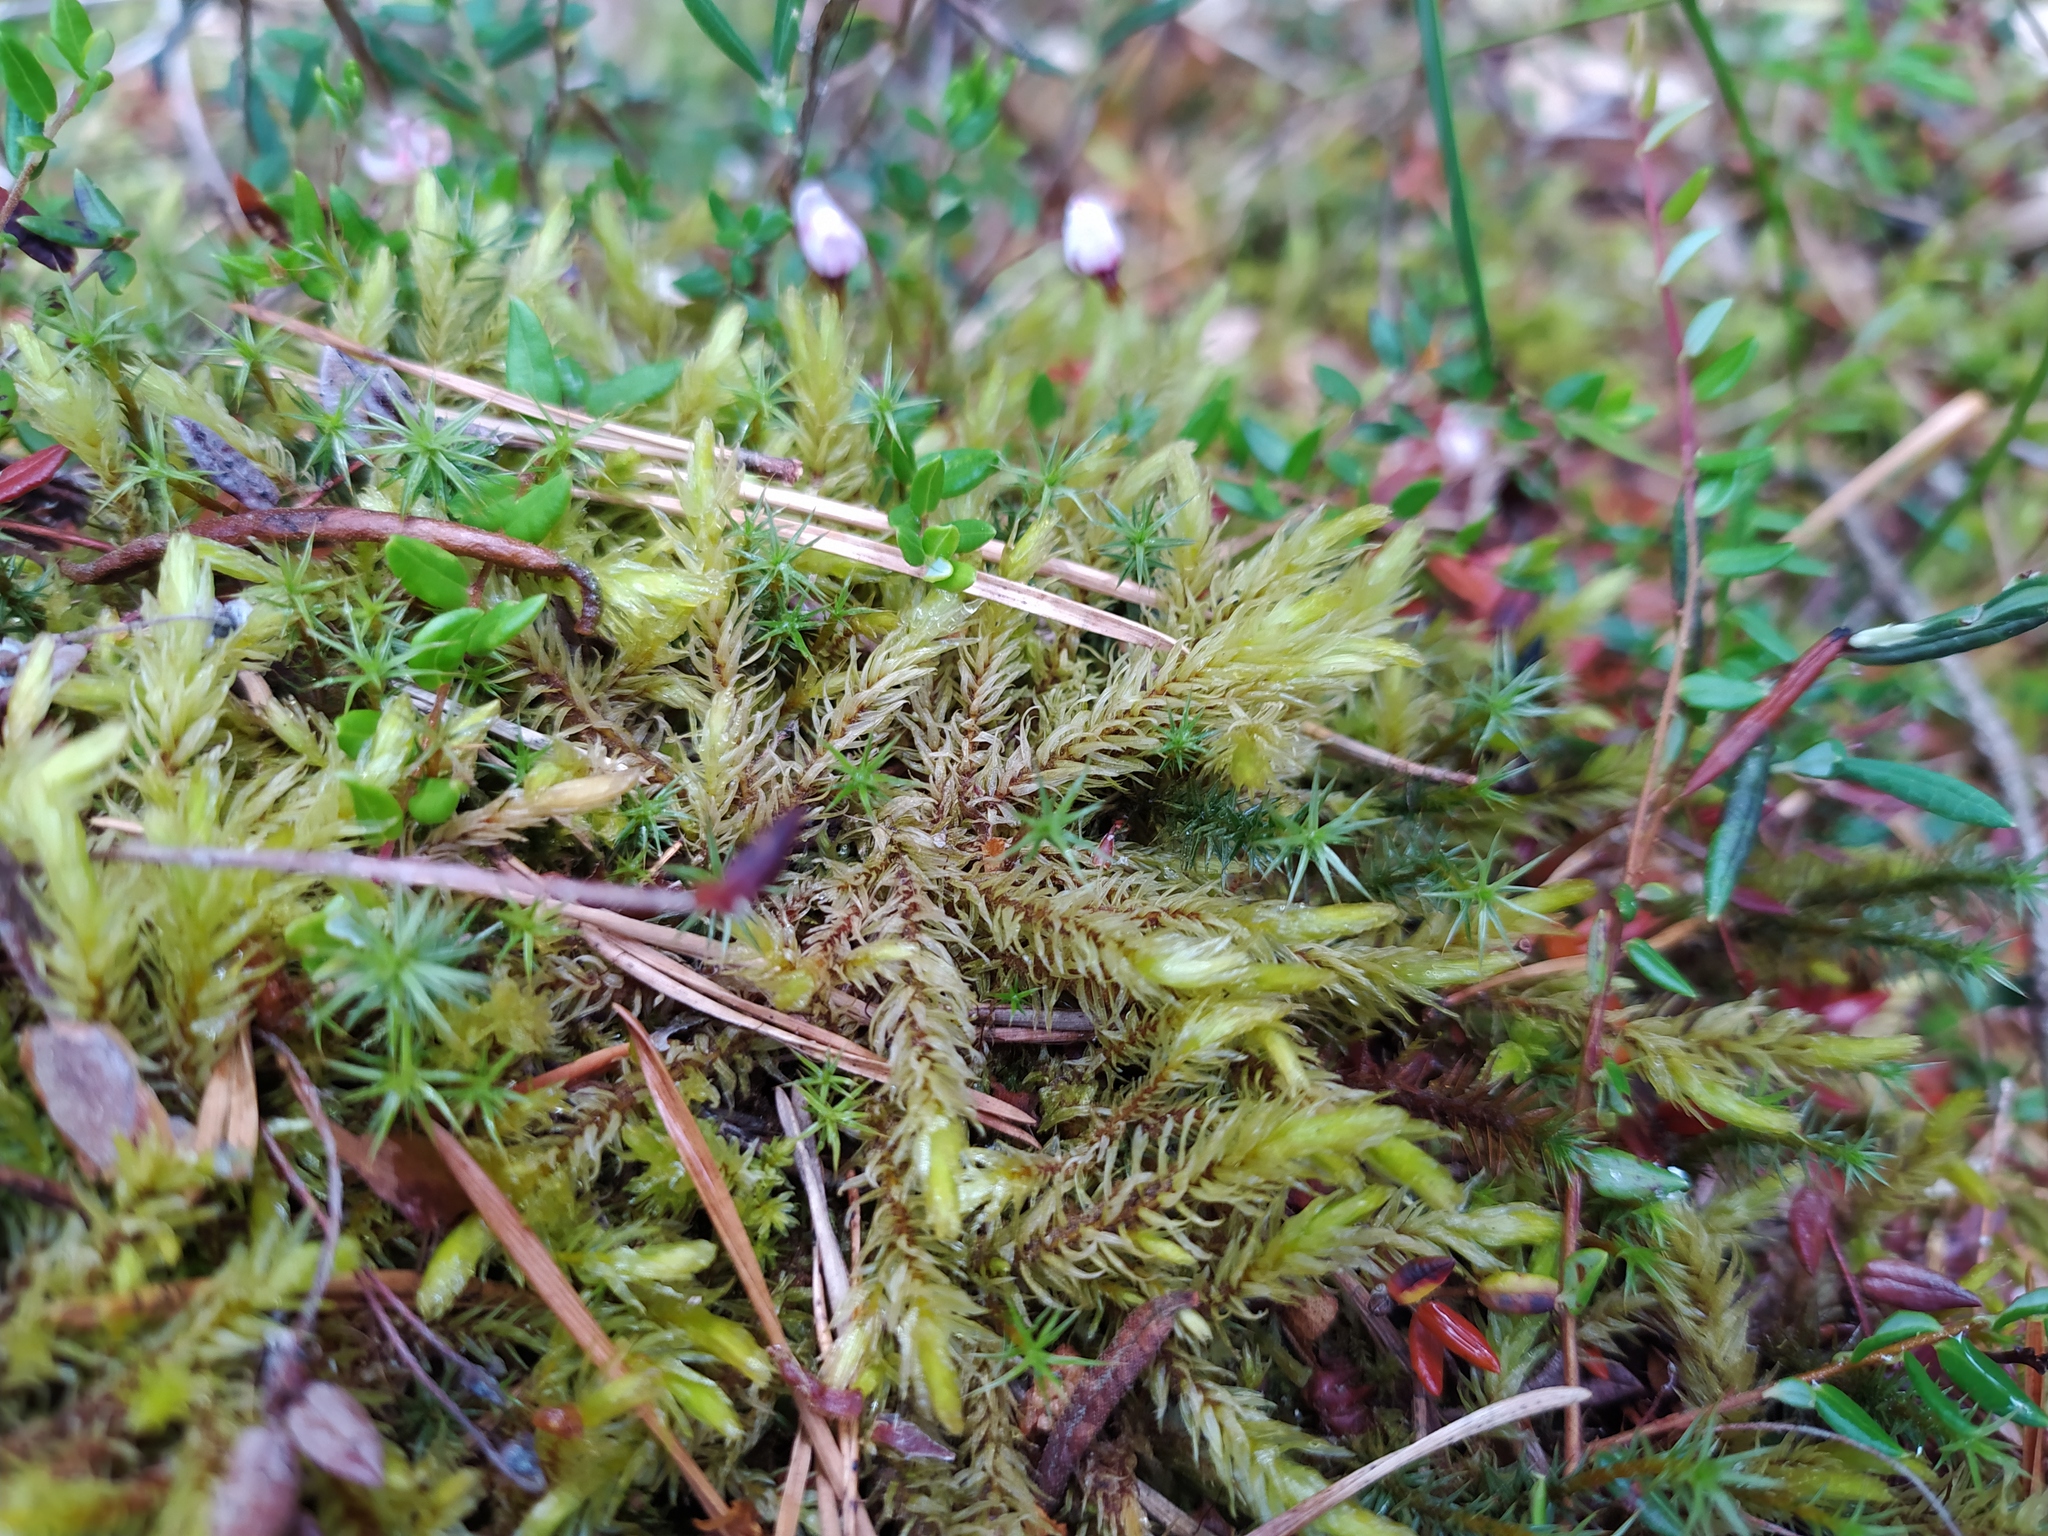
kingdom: Plantae
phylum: Bryophyta
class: Bryopsida
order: Aulacomniales
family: Aulacomniaceae
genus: Aulacomnium
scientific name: Aulacomnium palustre
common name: Bog groove-moss
